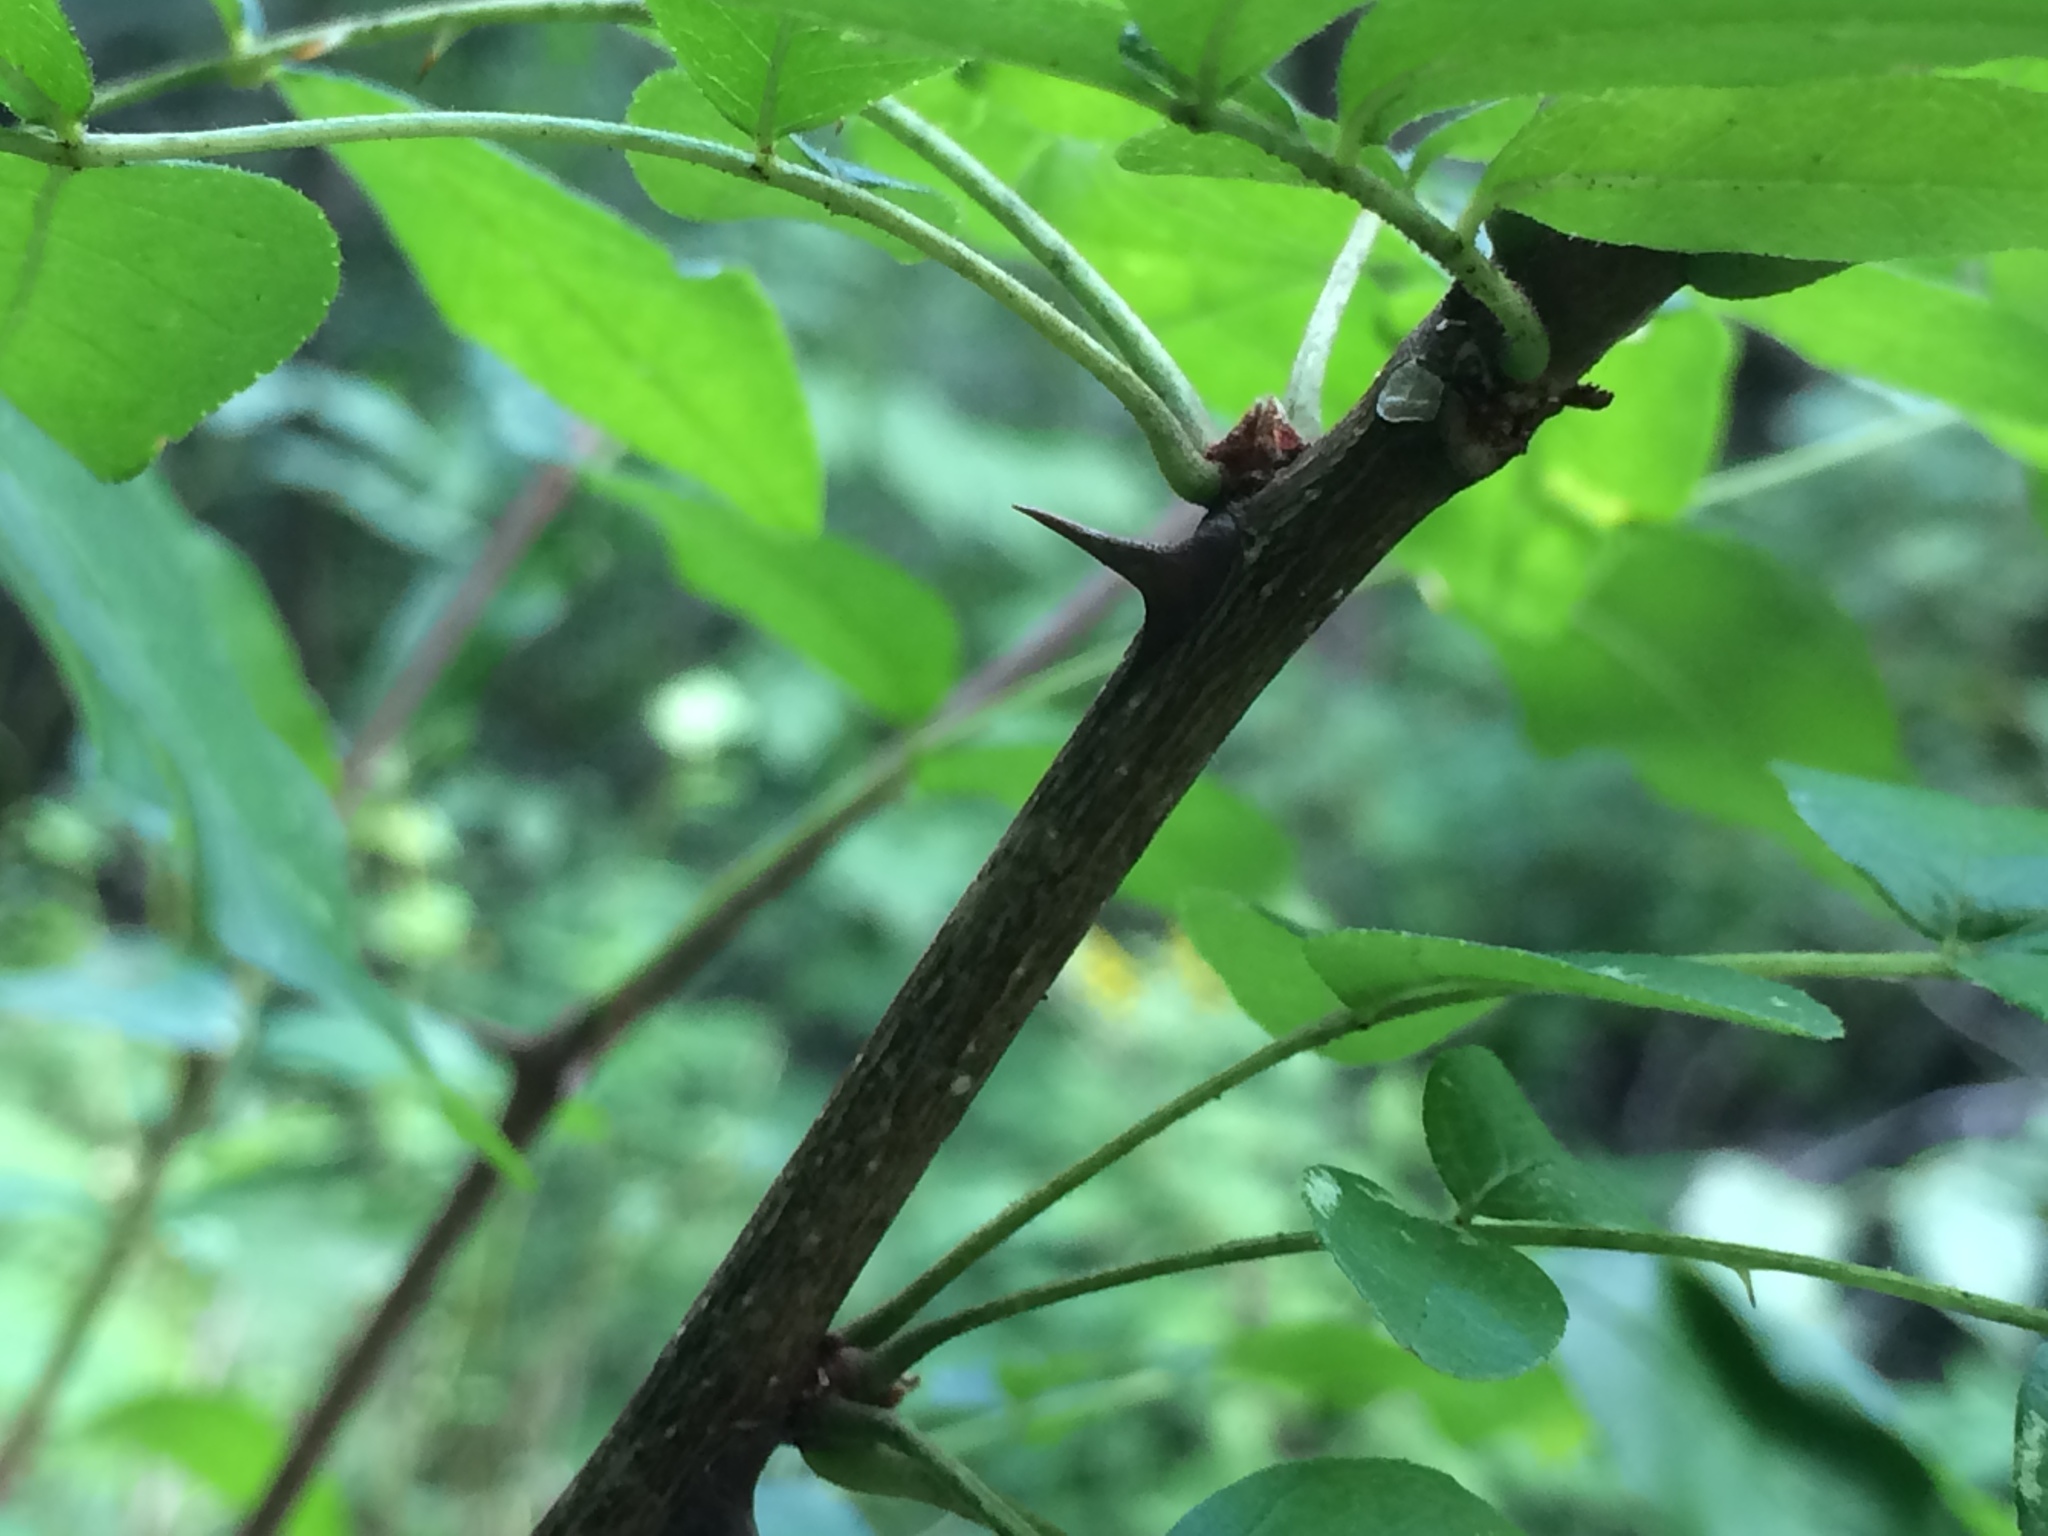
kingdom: Plantae
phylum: Tracheophyta
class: Magnoliopsida
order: Sapindales
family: Rutaceae
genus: Zanthoxylum
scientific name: Zanthoxylum americanum
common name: Northern prickly-ash
